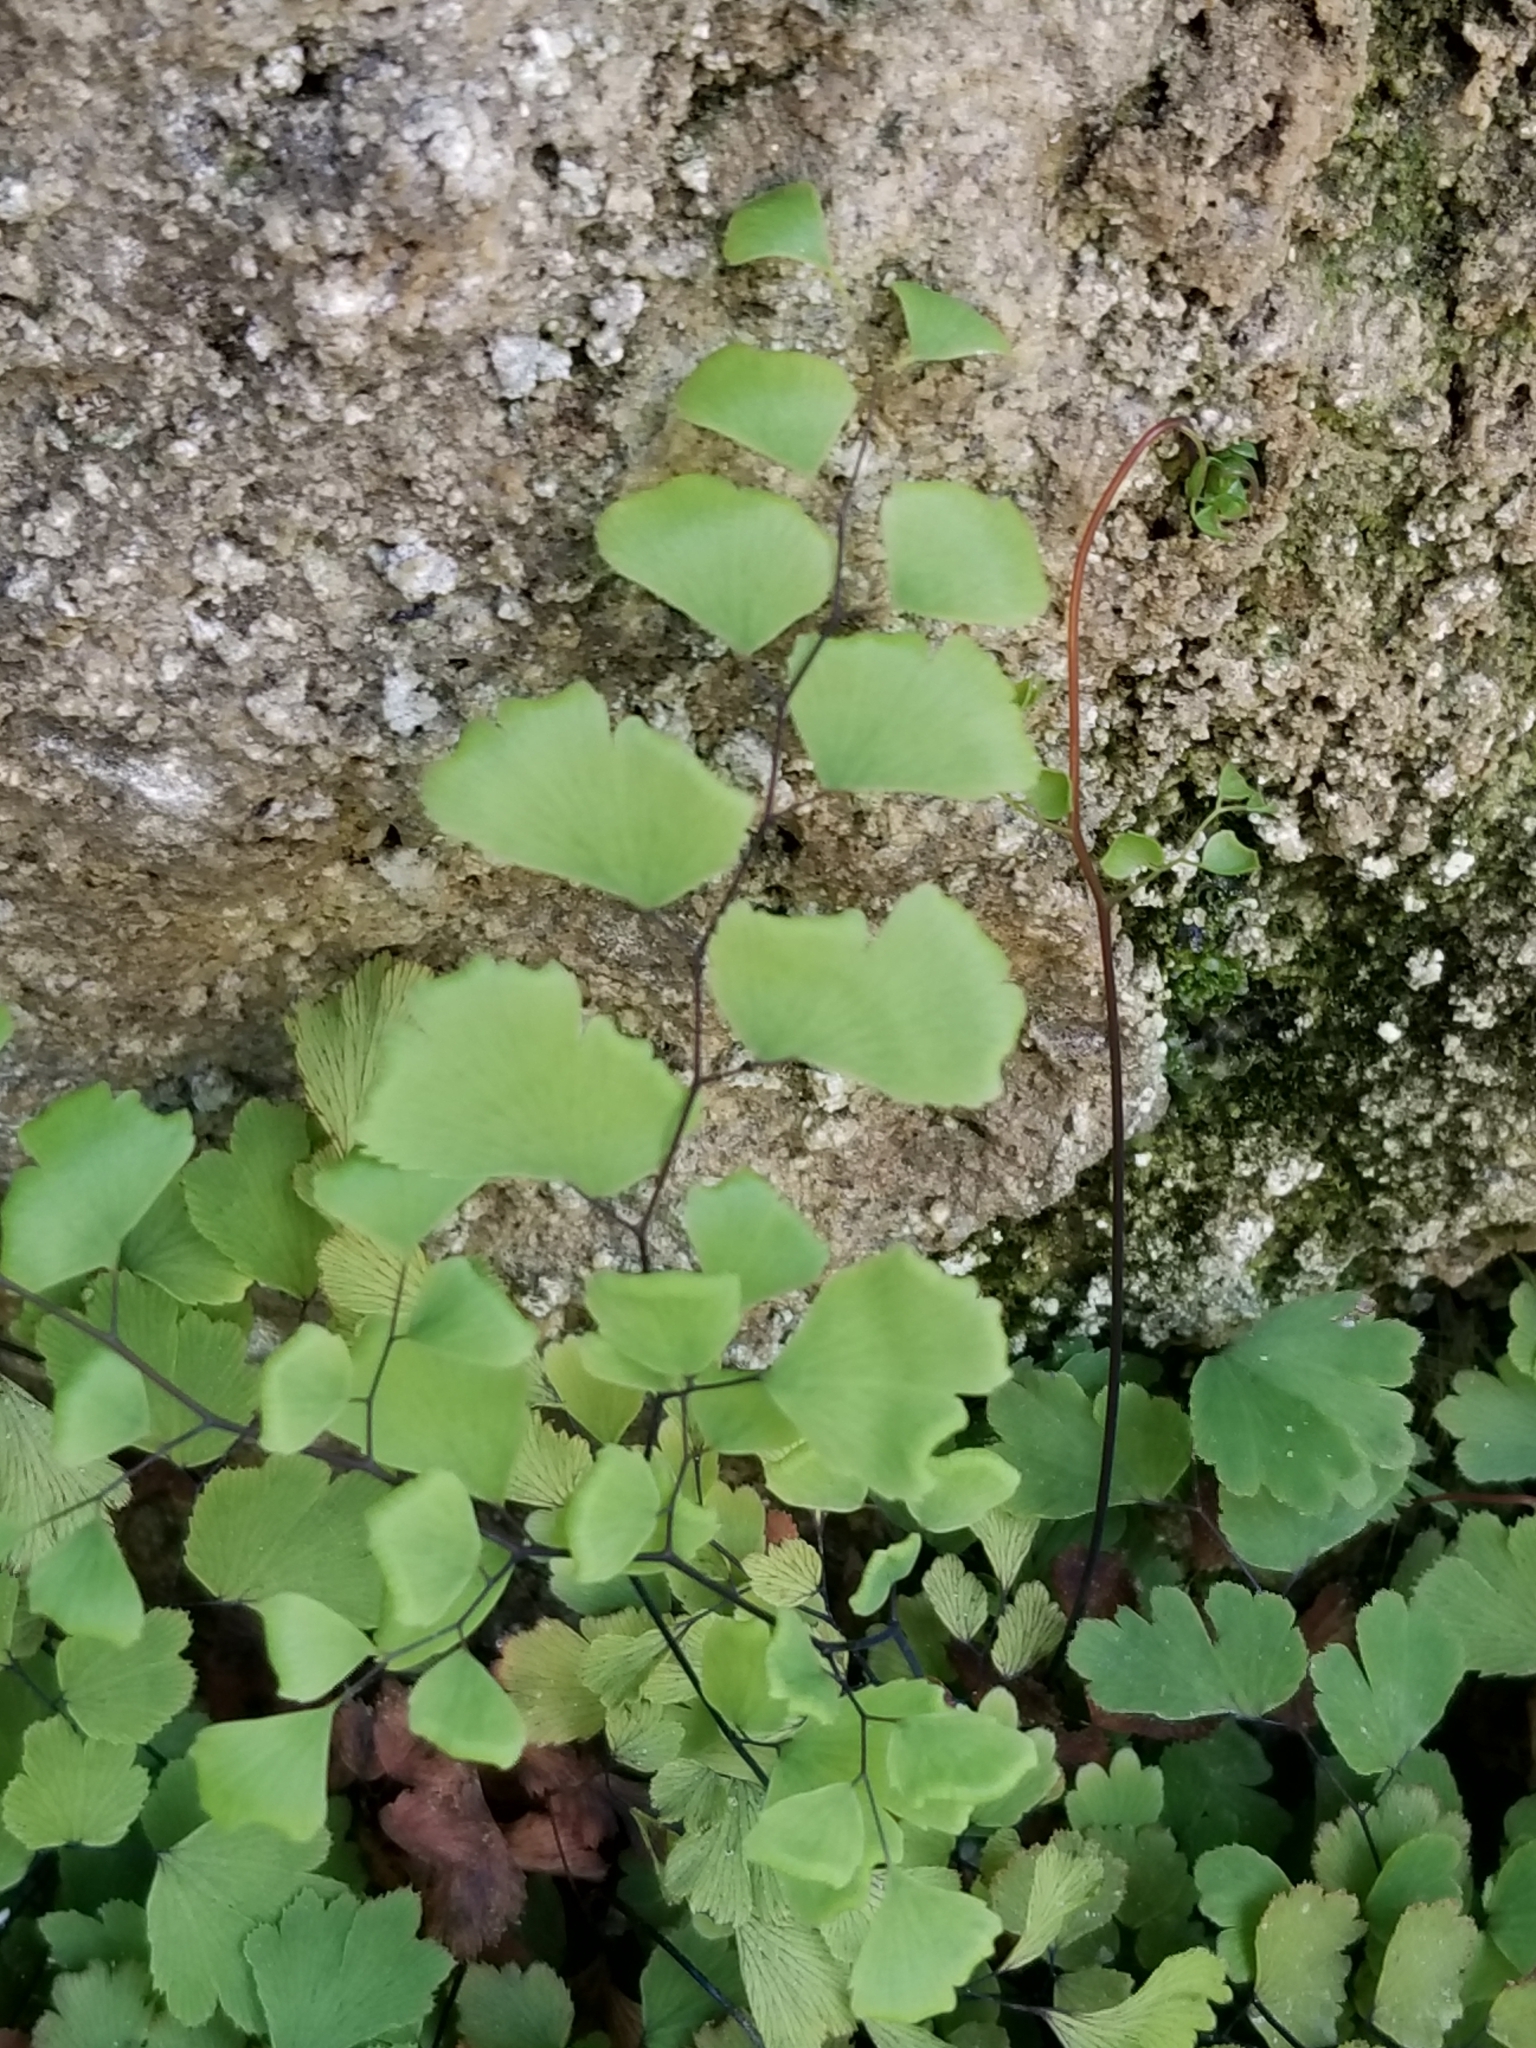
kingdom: Plantae
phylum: Tracheophyta
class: Polypodiopsida
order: Polypodiales
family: Pteridaceae
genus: Adiantum
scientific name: Adiantum capillus-veneris
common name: Maidenhair fern
